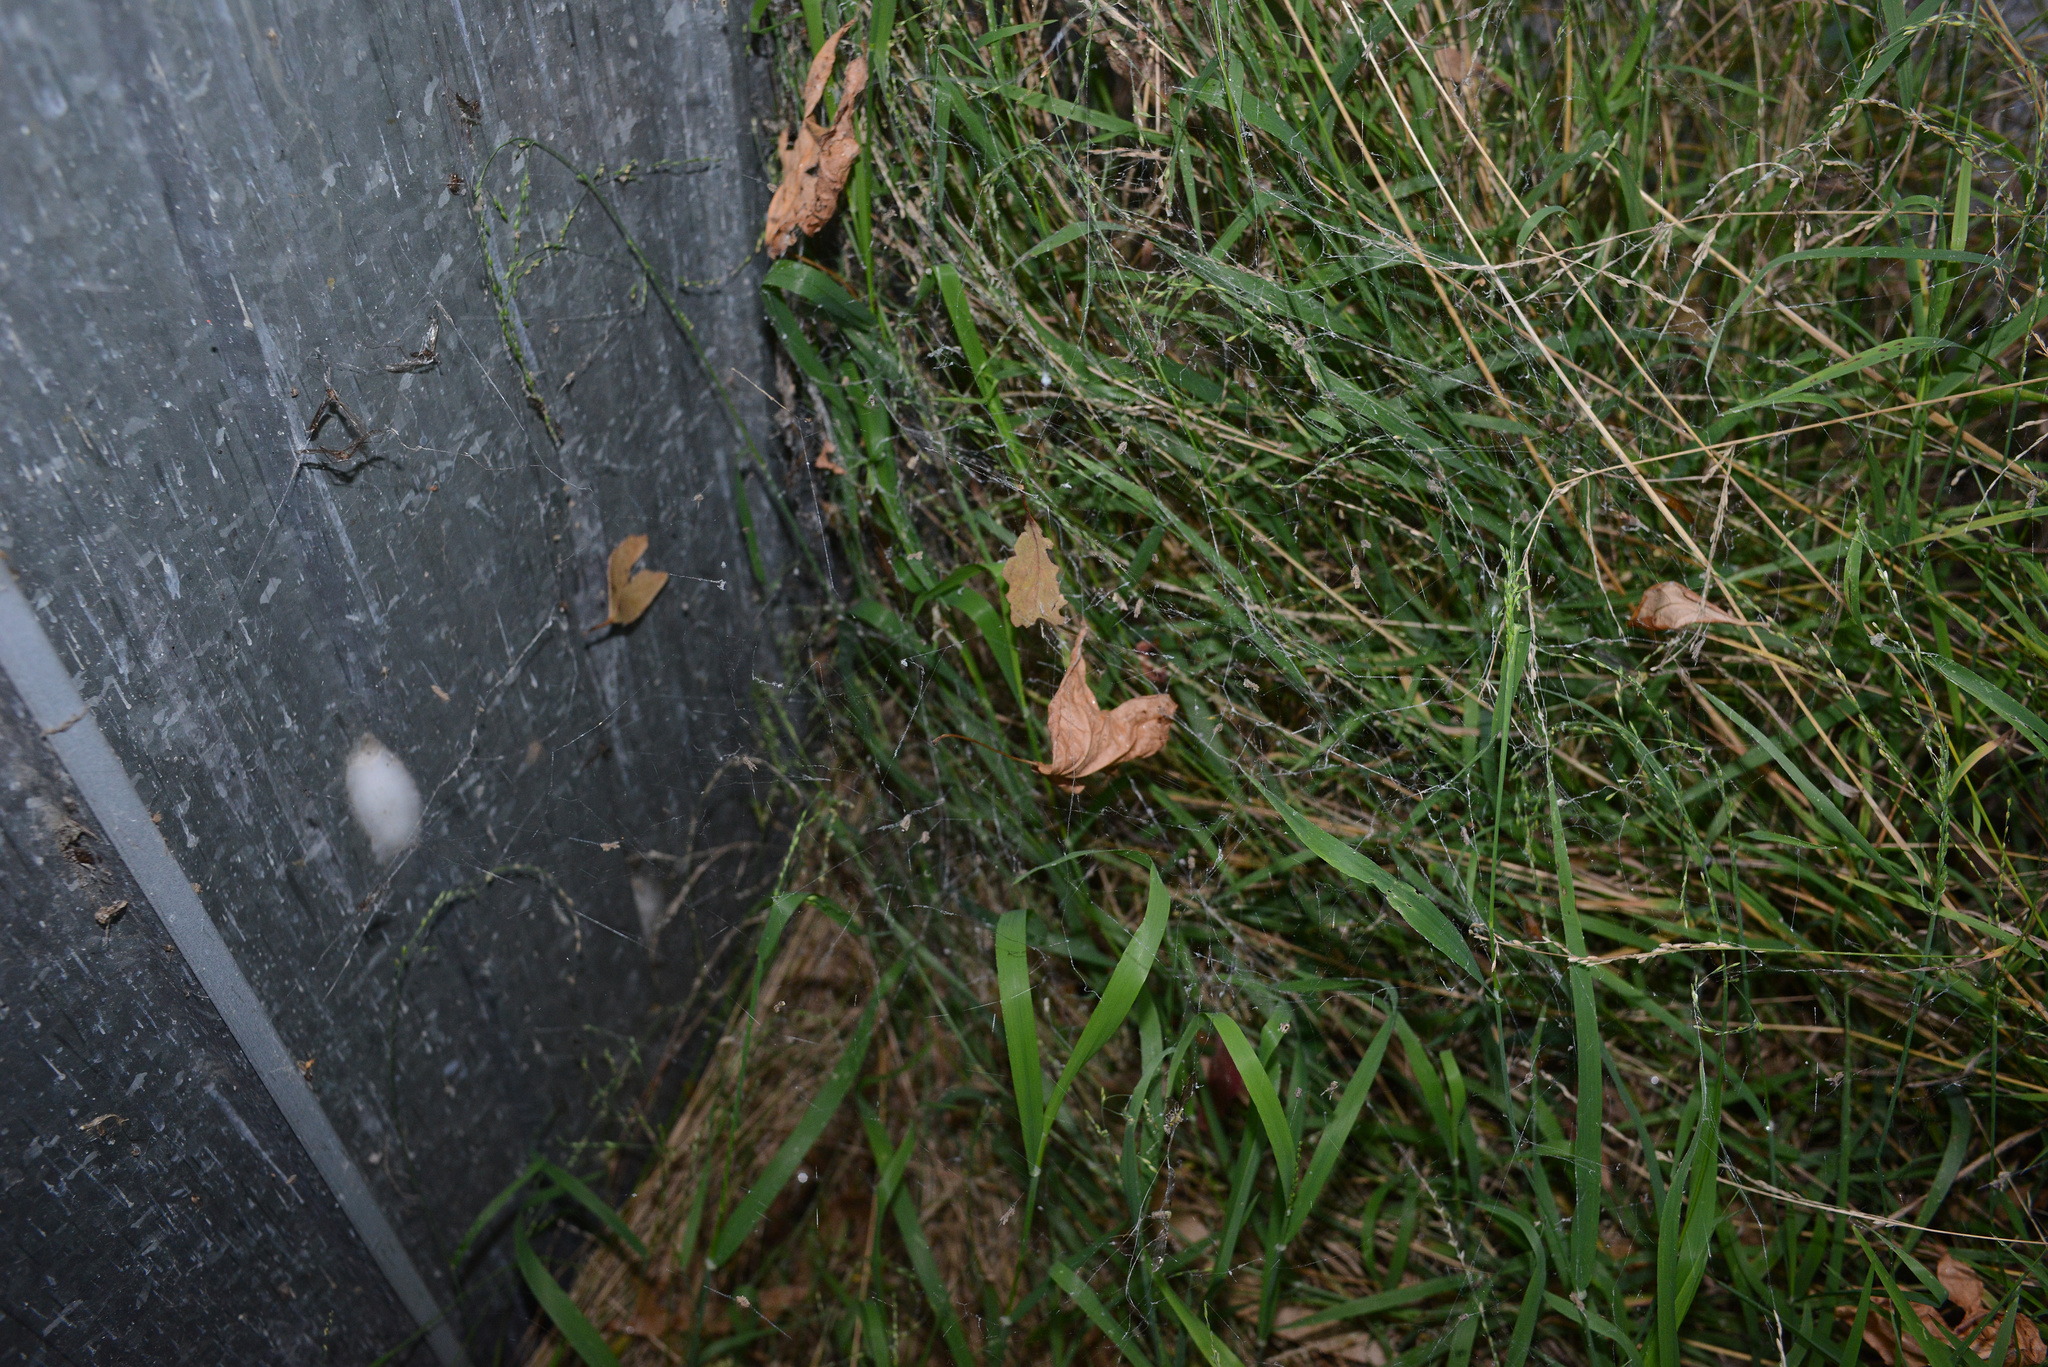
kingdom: Animalia
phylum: Arthropoda
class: Arachnida
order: Araneae
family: Uloboridae
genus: Philoponella
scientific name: Philoponella congregabilis
